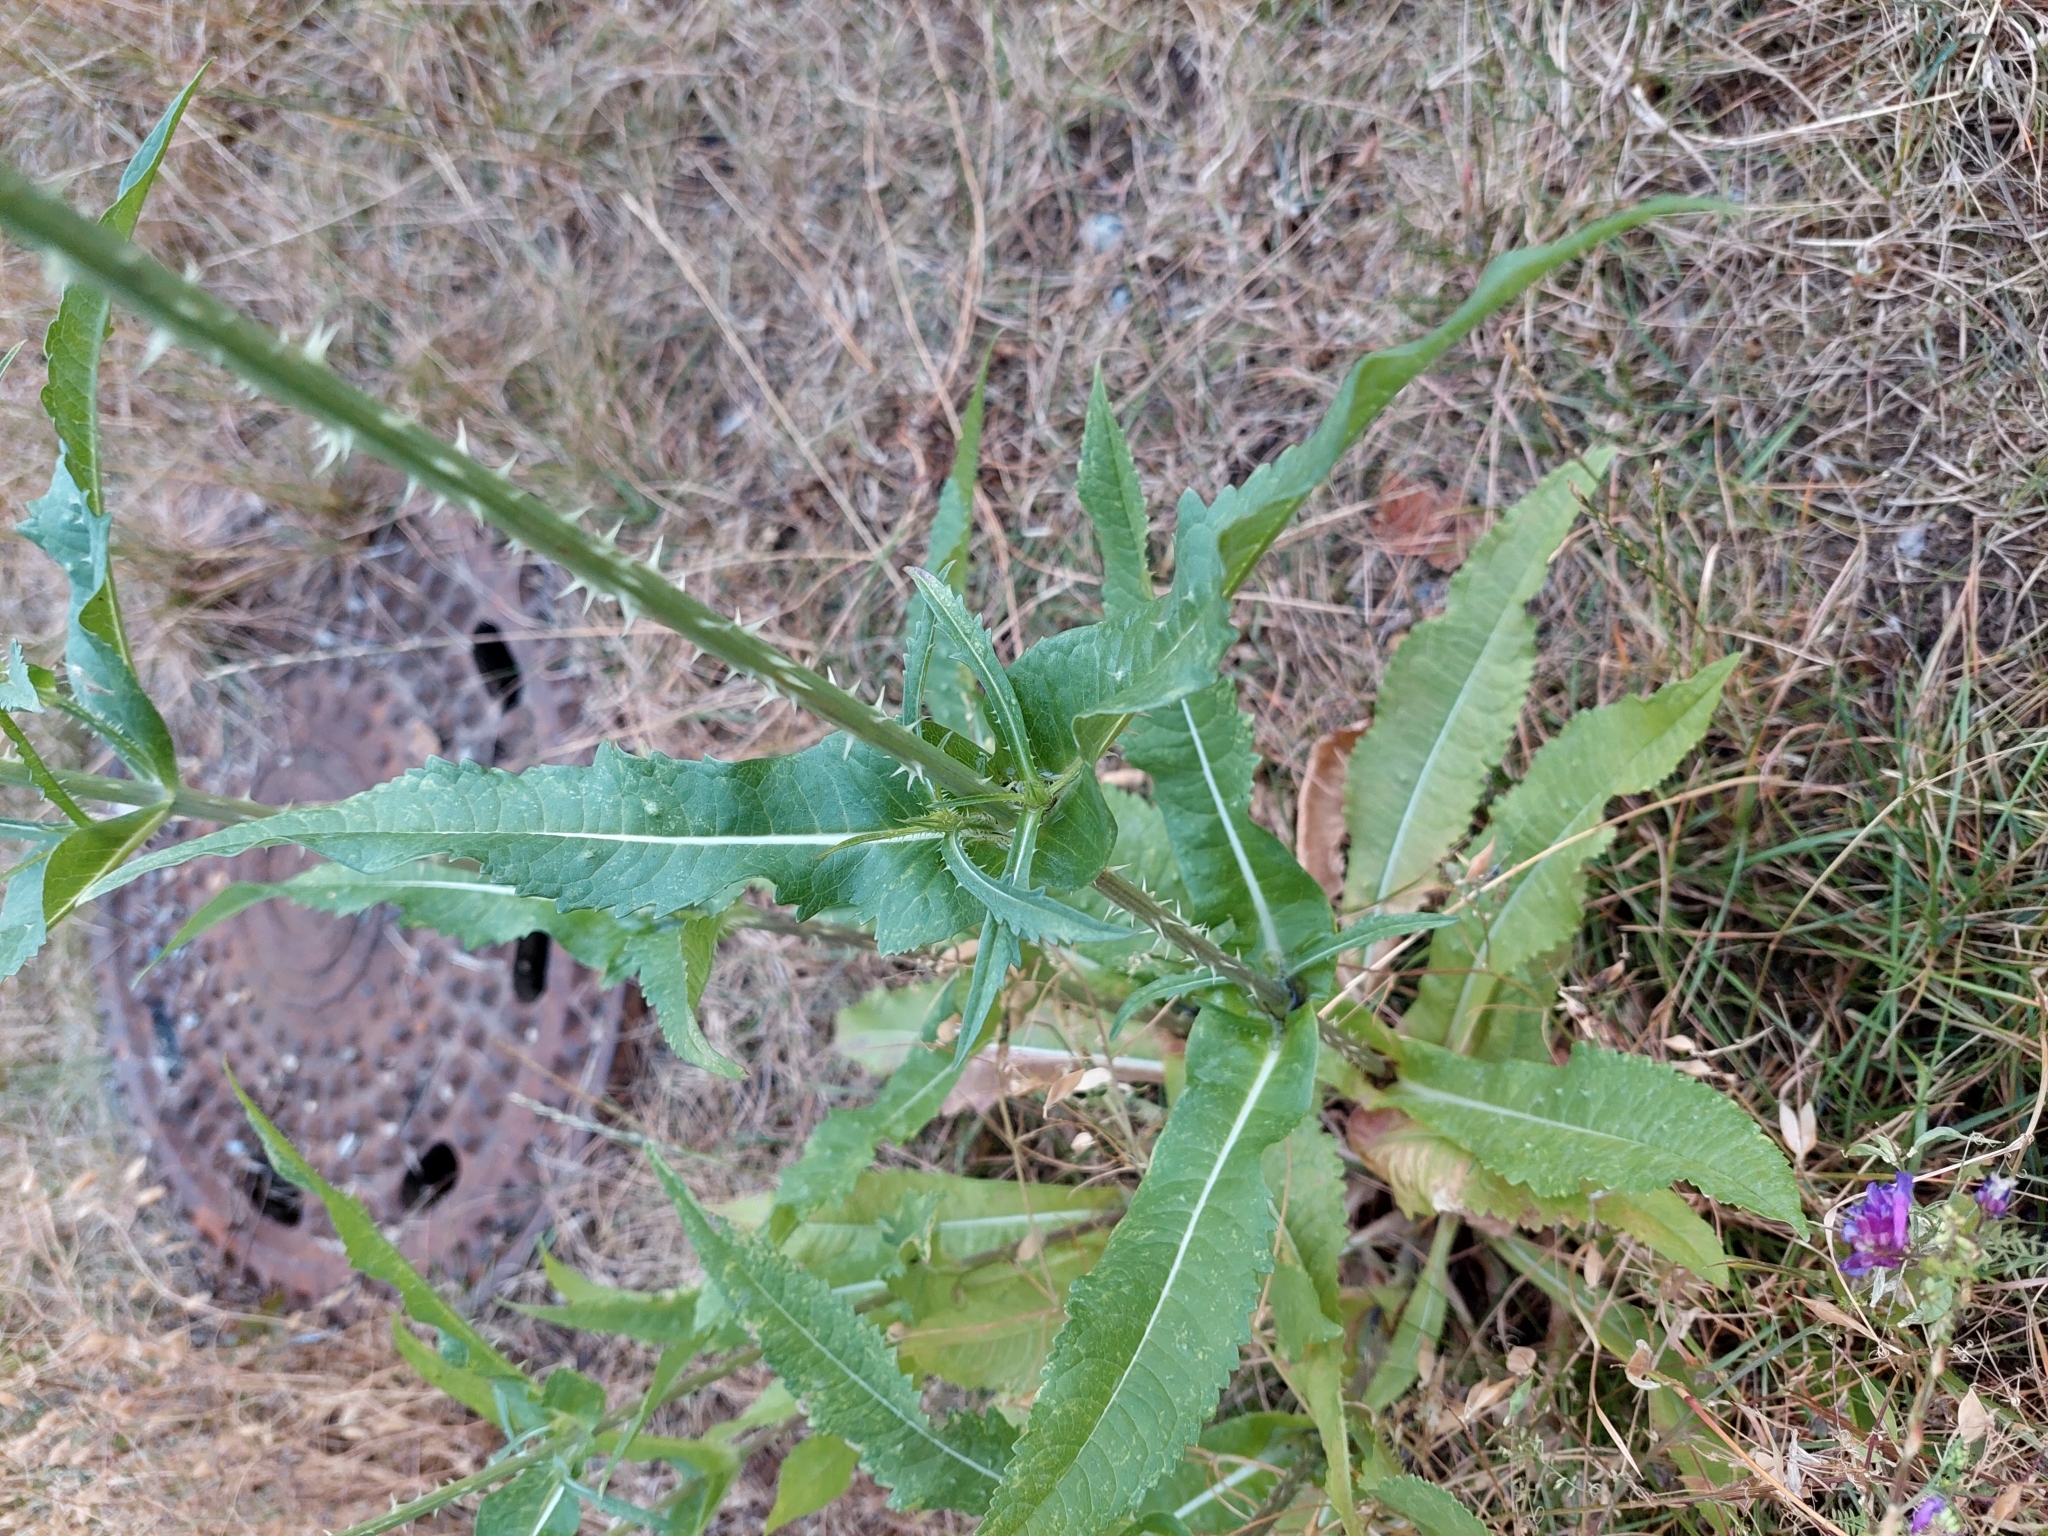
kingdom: Plantae
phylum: Tracheophyta
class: Magnoliopsida
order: Dipsacales
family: Caprifoliaceae
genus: Dipsacus
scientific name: Dipsacus fullonum
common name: Teasel
